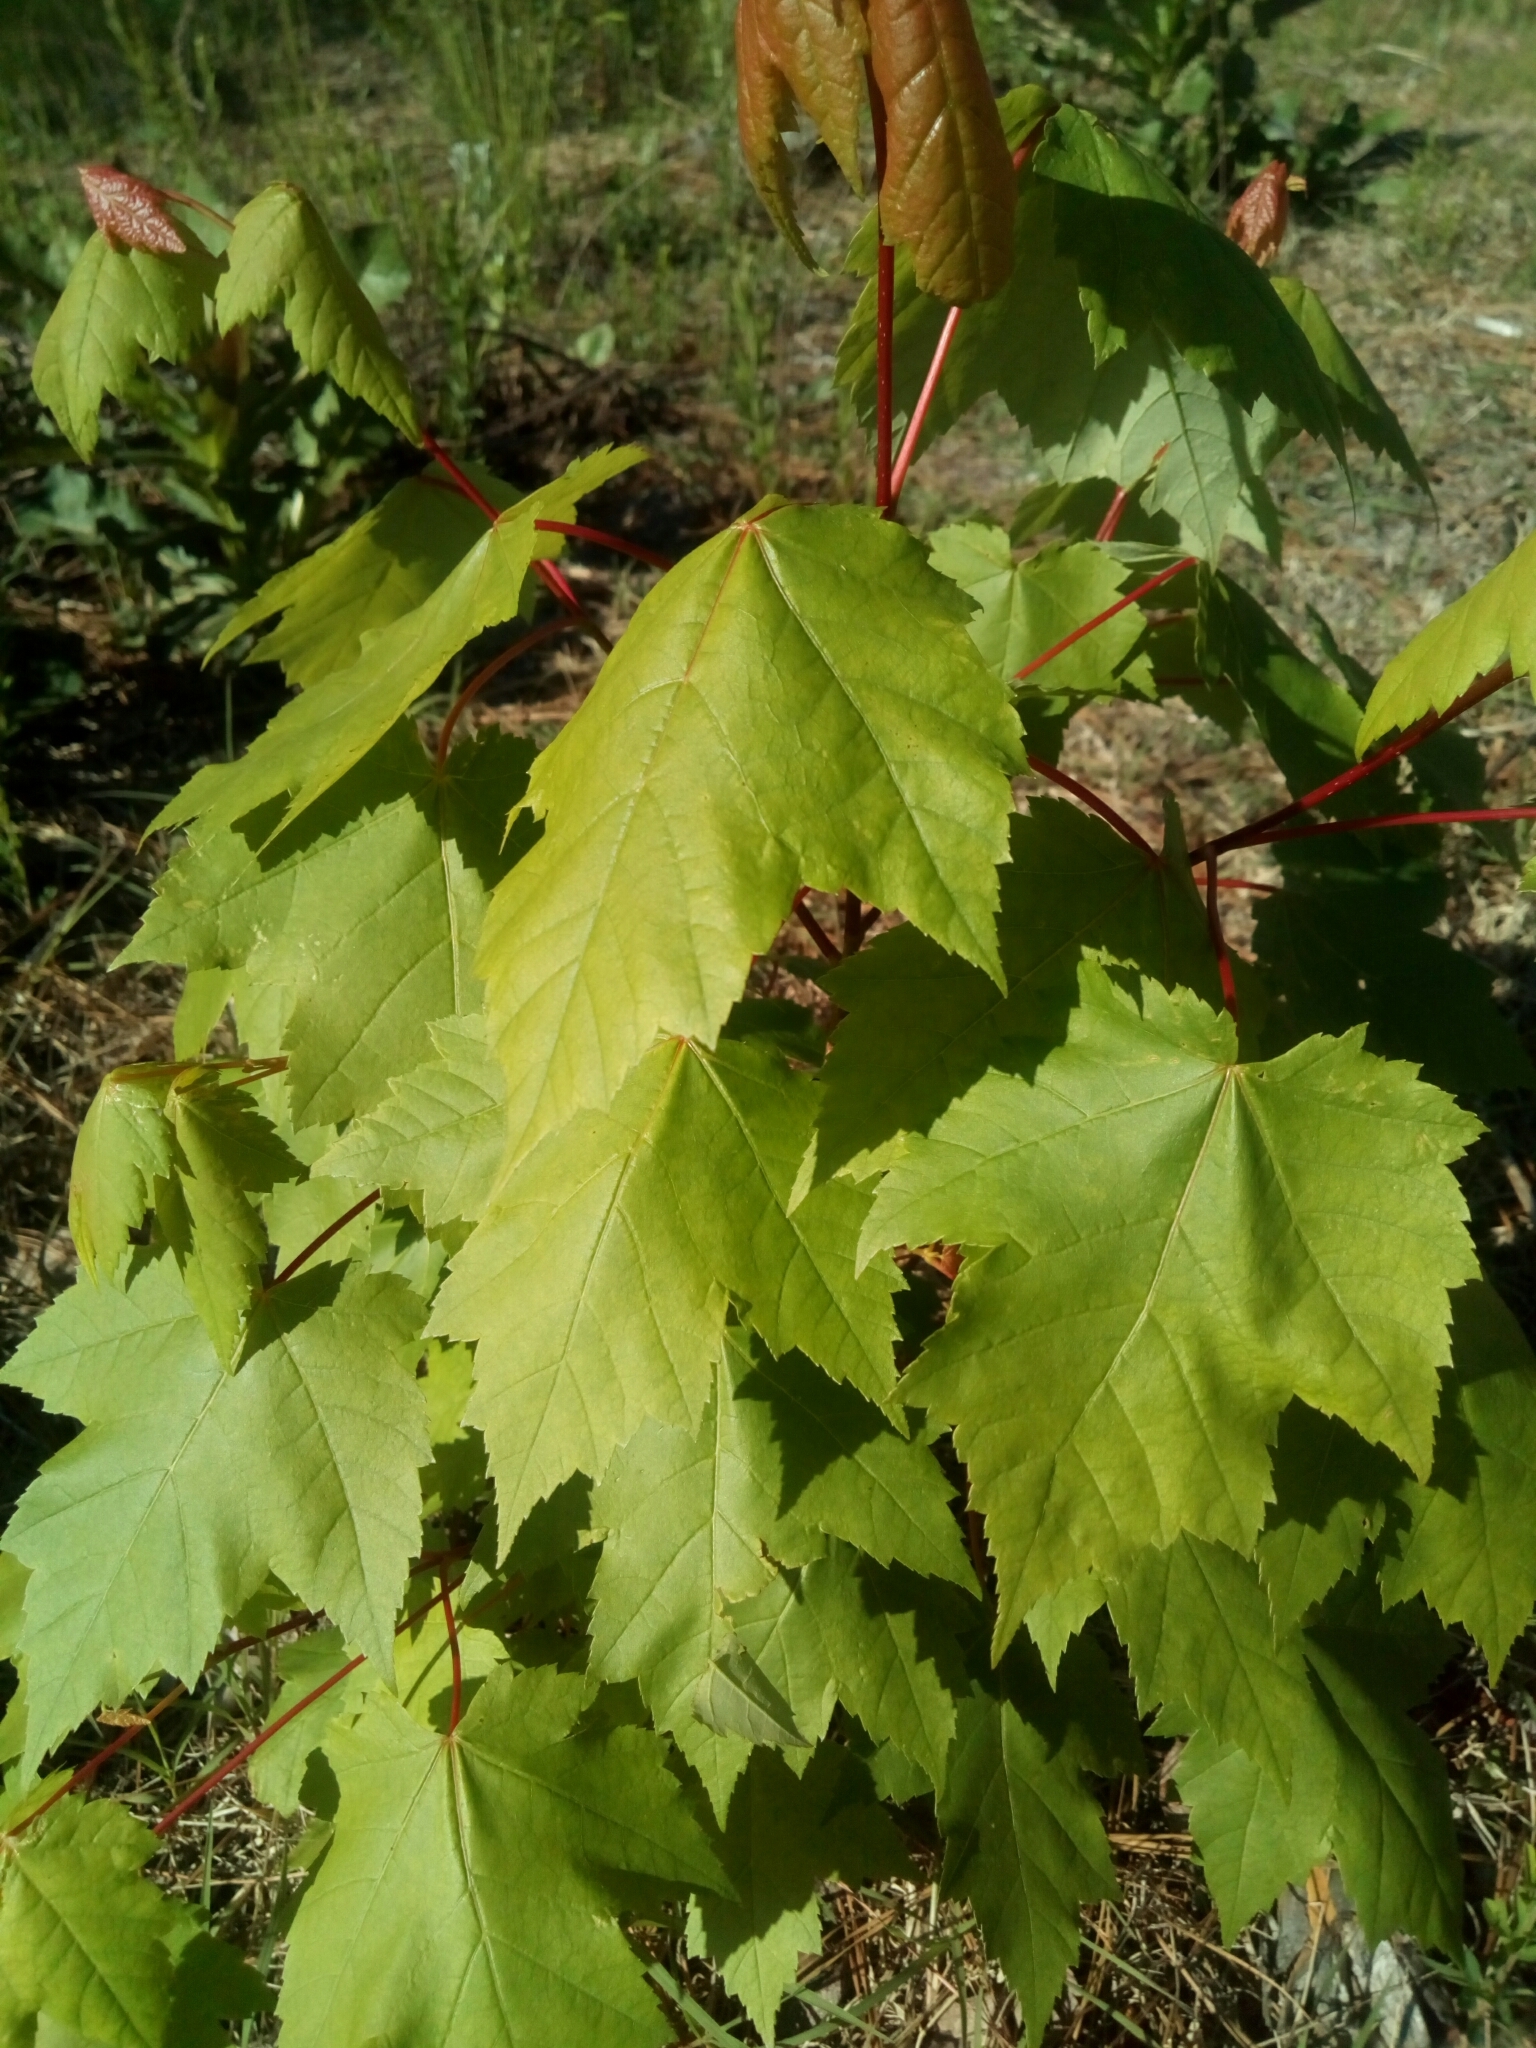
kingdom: Plantae
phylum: Tracheophyta
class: Magnoliopsida
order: Sapindales
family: Sapindaceae
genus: Acer
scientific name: Acer rubrum
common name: Red maple
